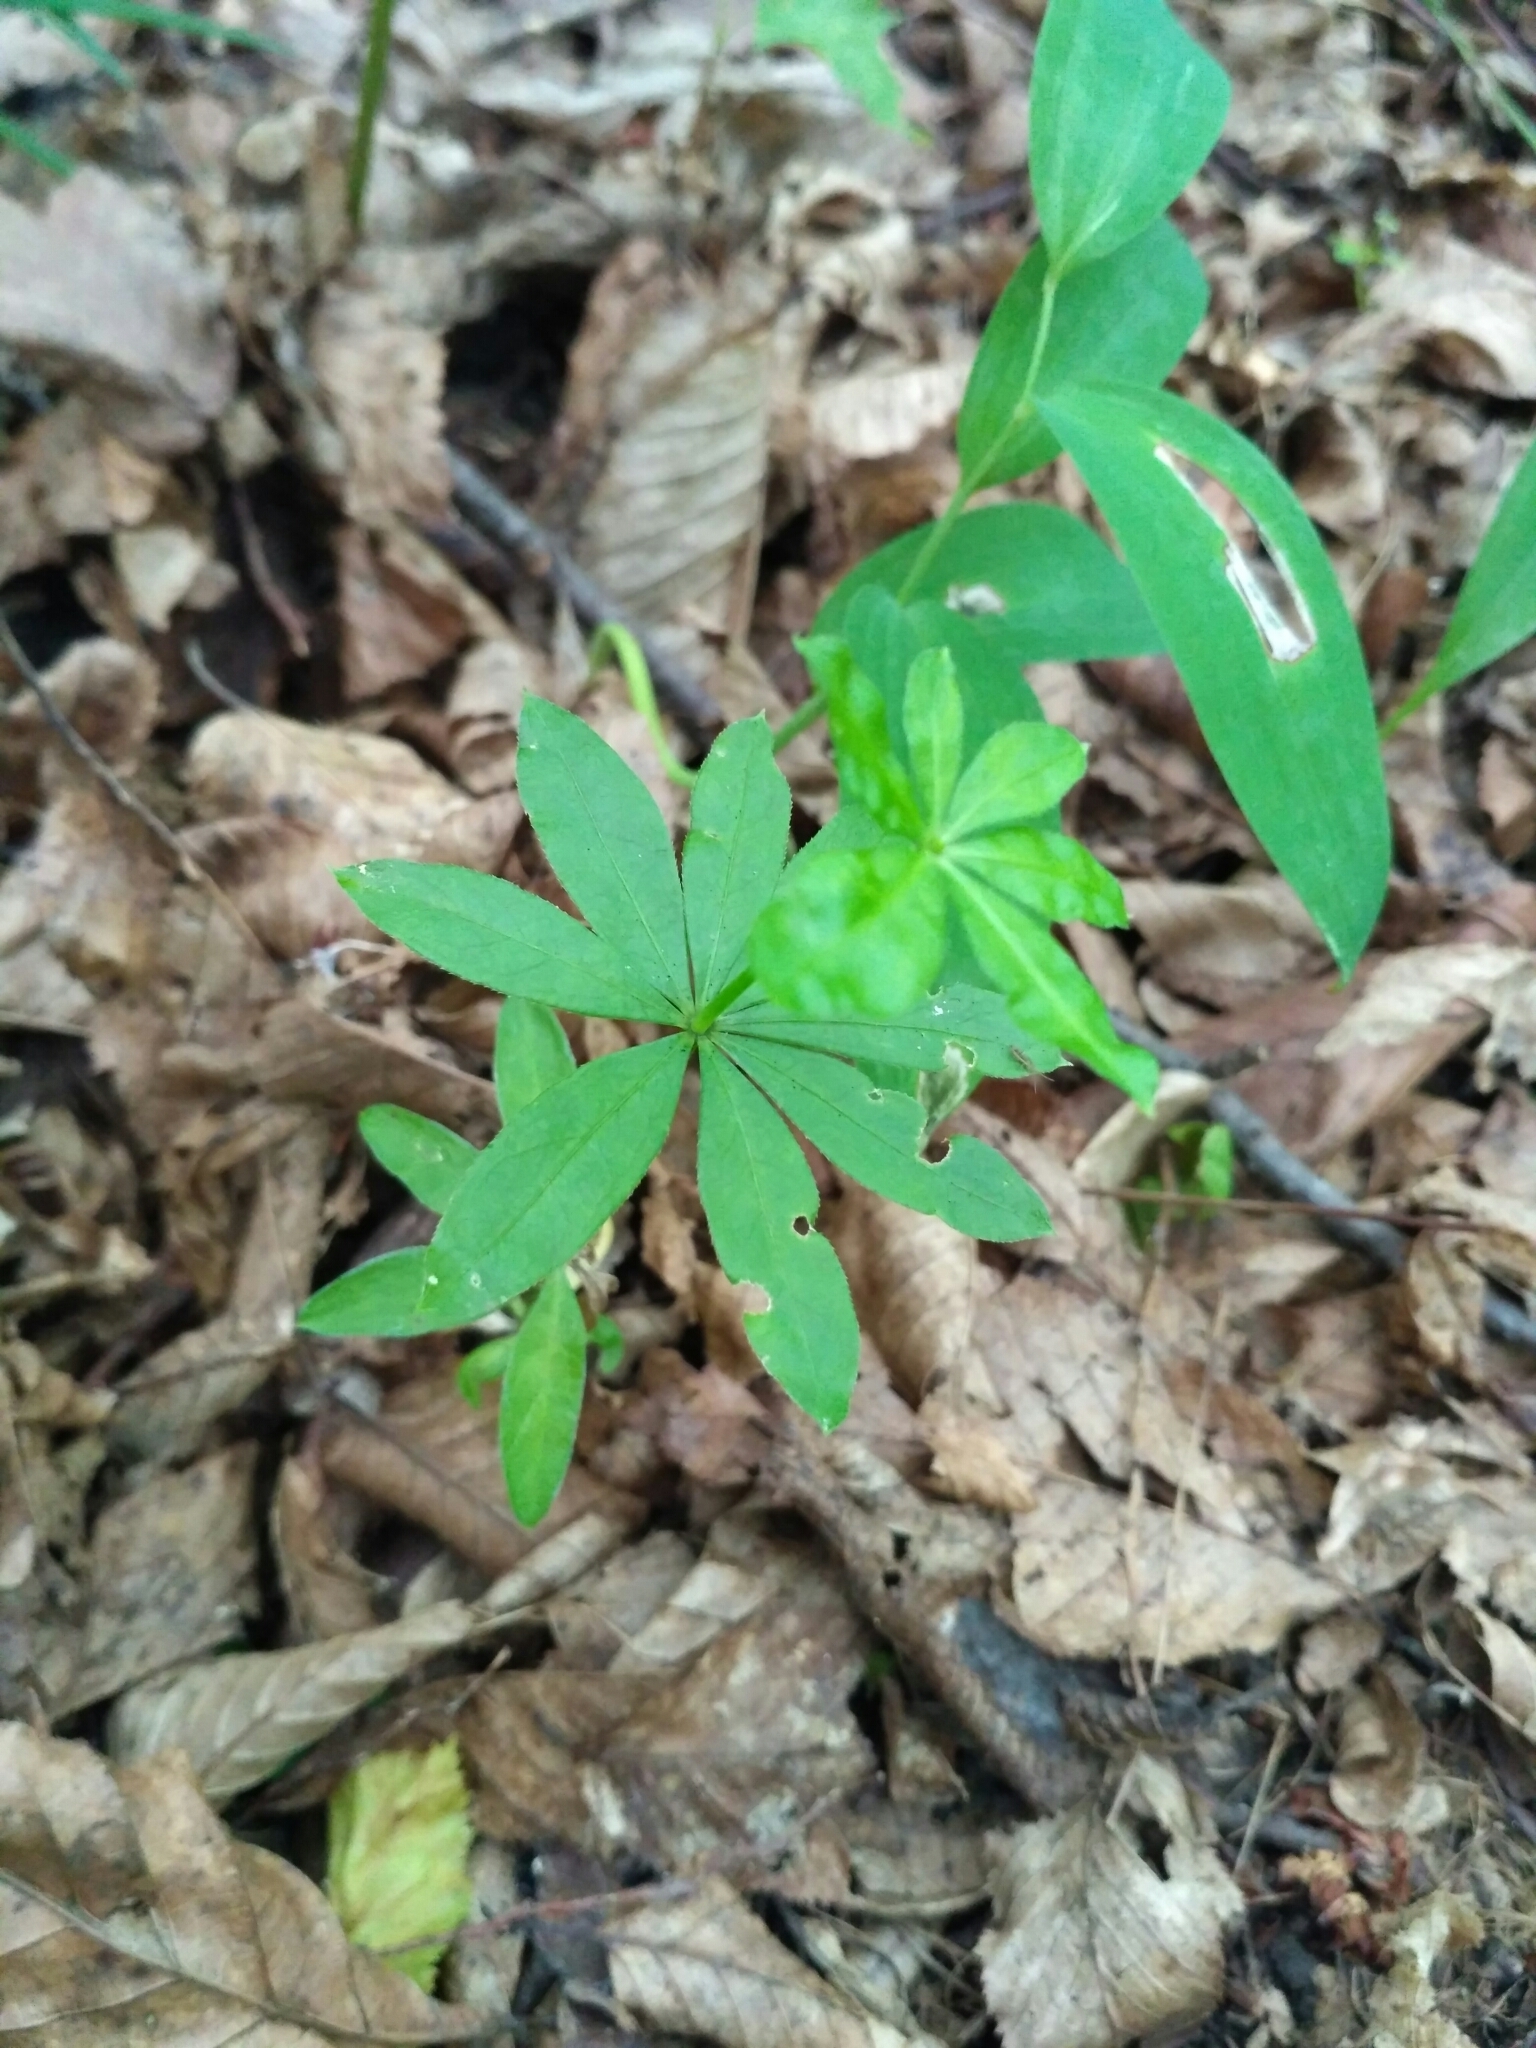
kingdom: Plantae
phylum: Tracheophyta
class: Magnoliopsida
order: Gentianales
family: Rubiaceae
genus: Galium
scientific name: Galium odoratum
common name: Sweet woodruff
